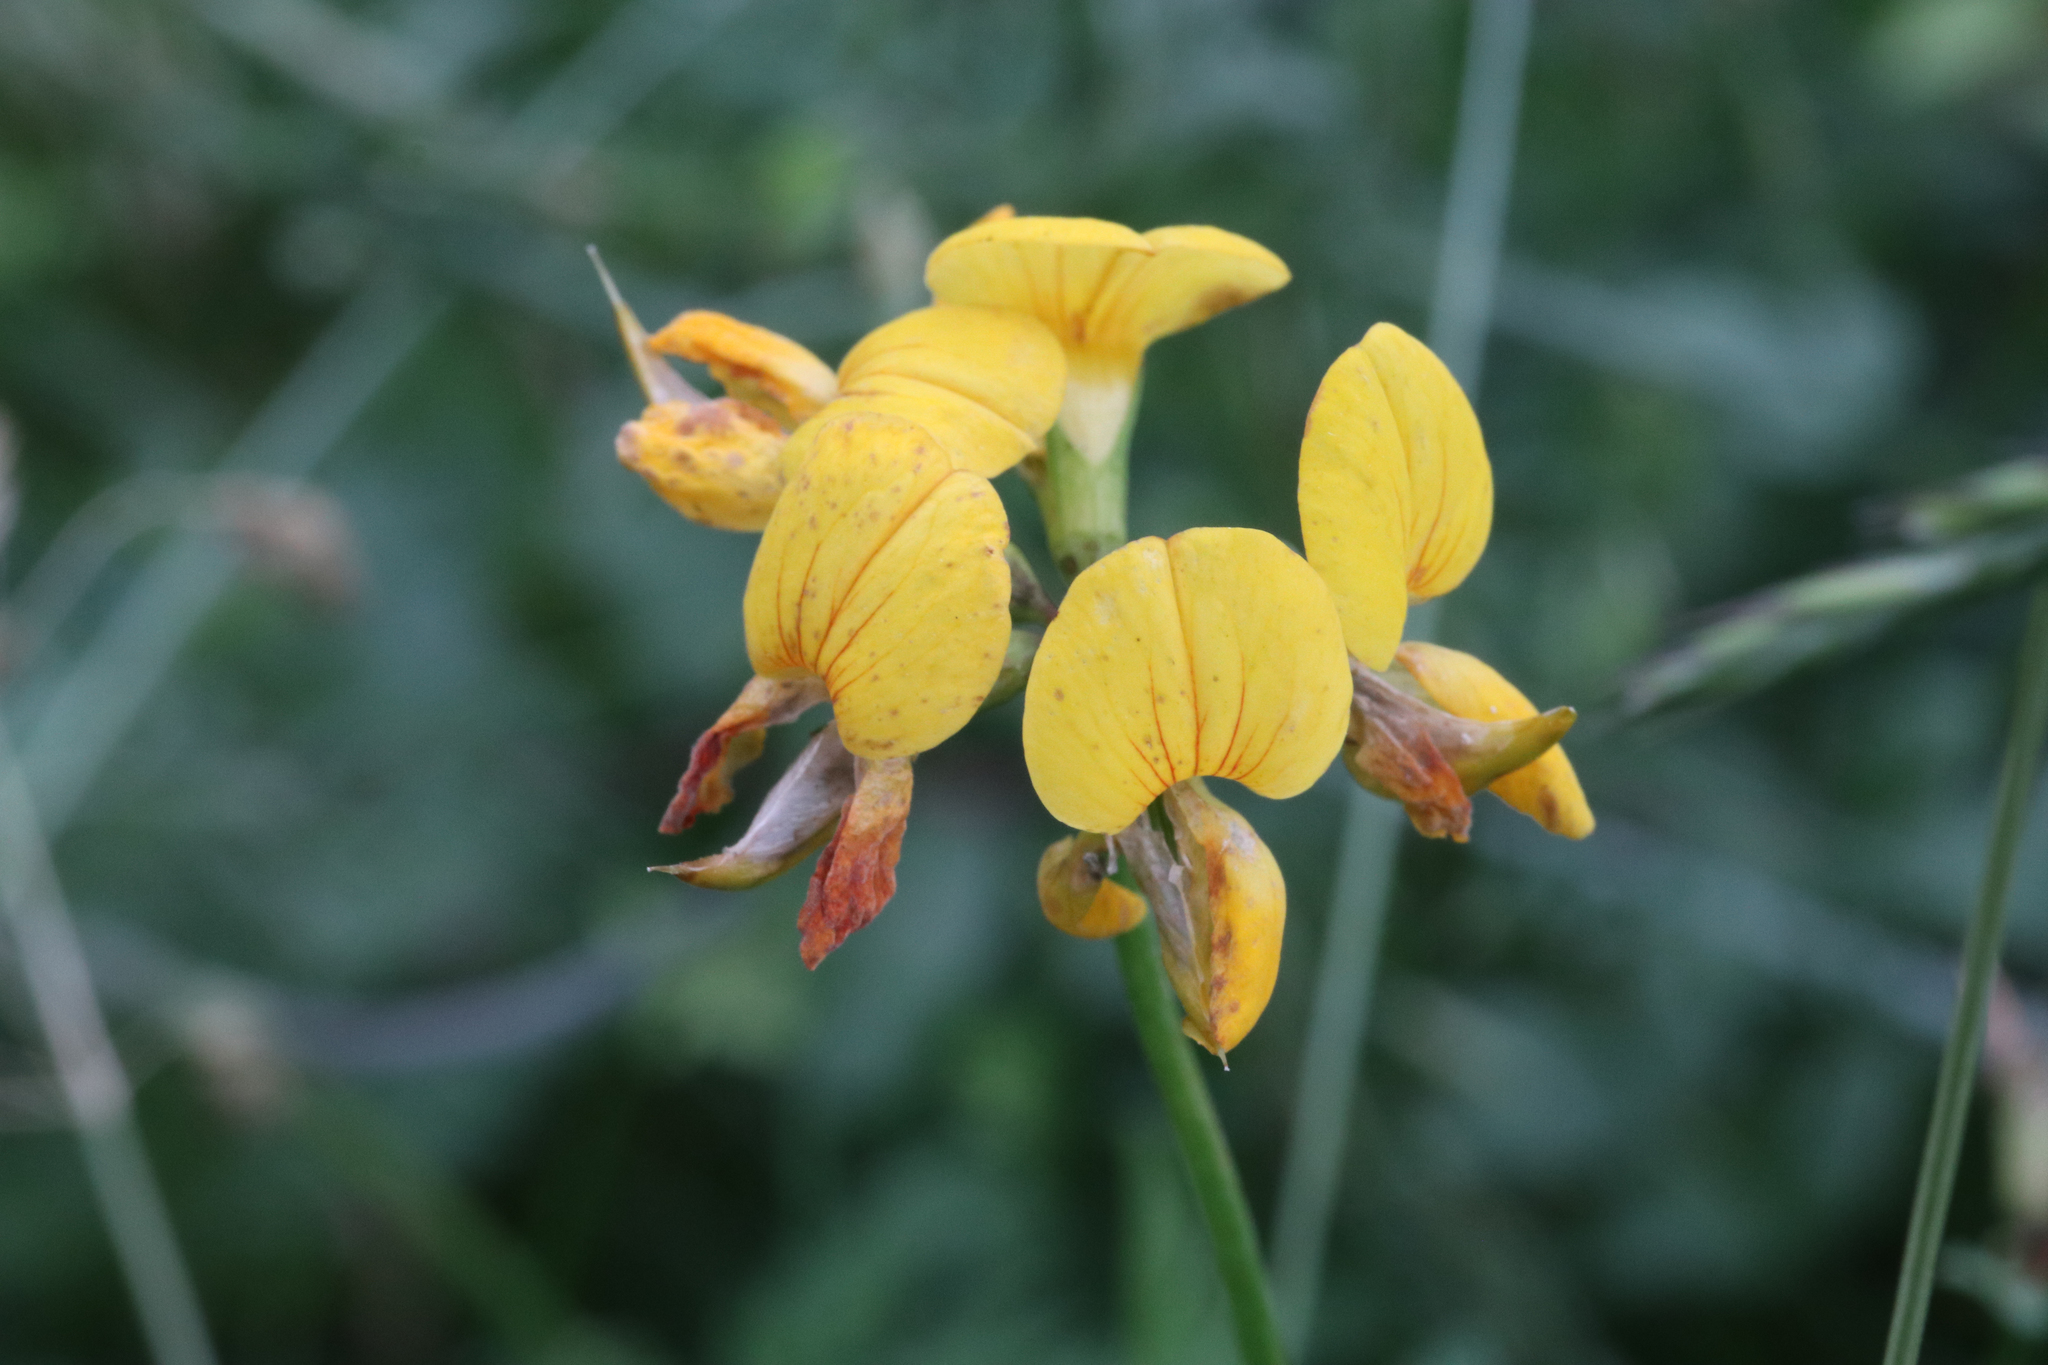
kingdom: Plantae
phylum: Tracheophyta
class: Magnoliopsida
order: Fabales
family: Fabaceae
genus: Lotus
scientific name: Lotus corniculatus
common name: Common bird's-foot-trefoil
